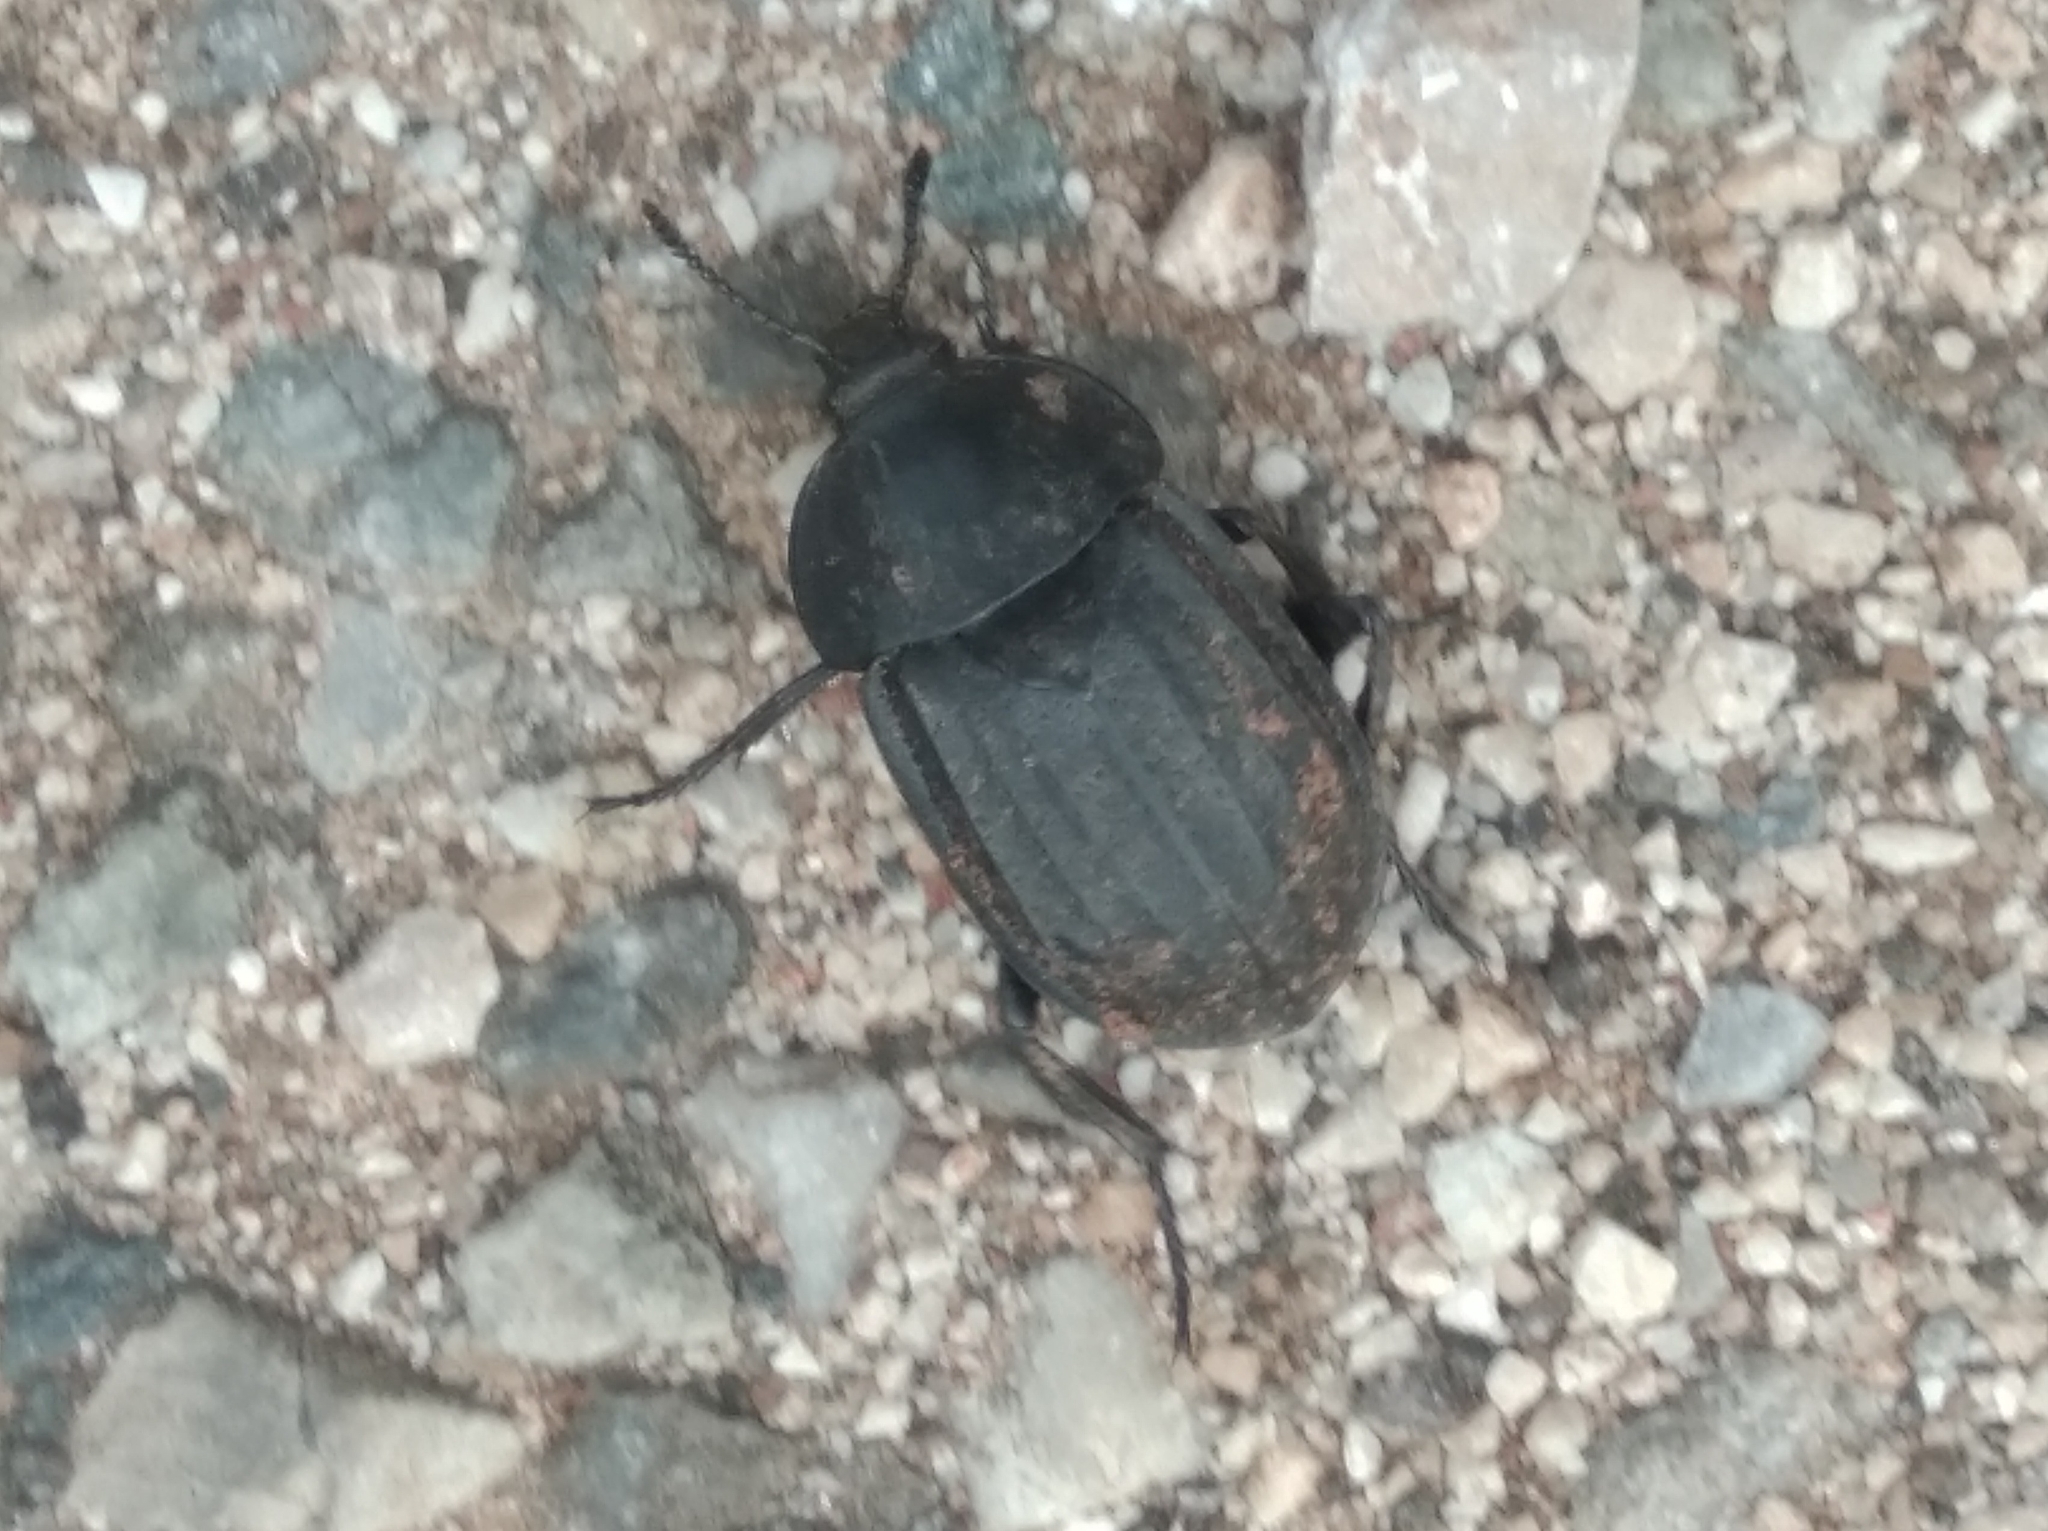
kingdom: Animalia
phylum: Arthropoda
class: Insecta
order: Coleoptera
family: Staphylinidae
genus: Silpha
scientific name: Silpha olivieri
